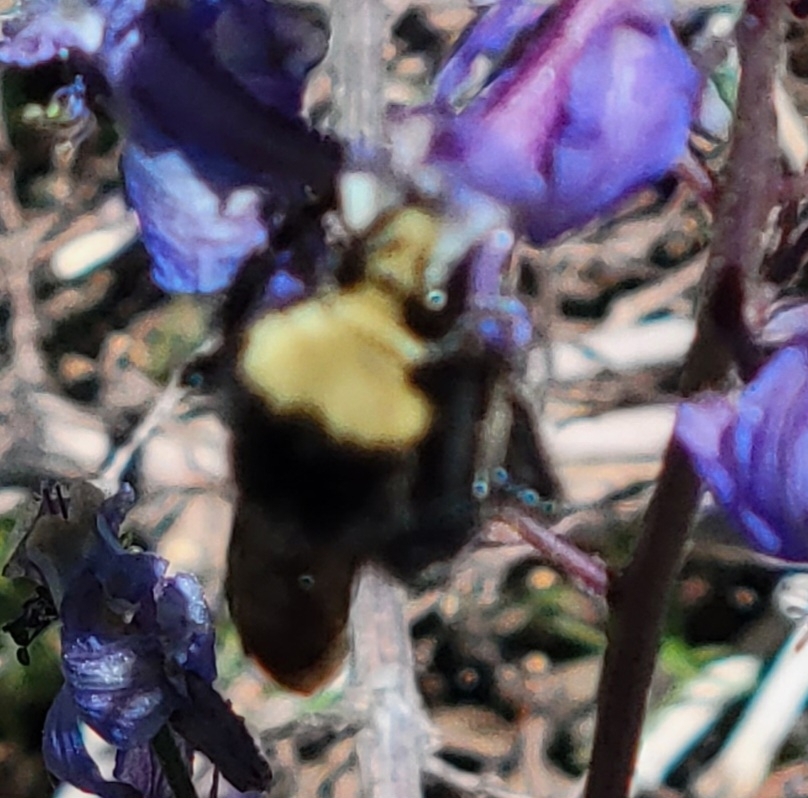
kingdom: Animalia
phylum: Arthropoda
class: Insecta
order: Hymenoptera
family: Apidae
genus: Bombus
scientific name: Bombus vosnesenskii
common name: Vosnesensky bumble bee
